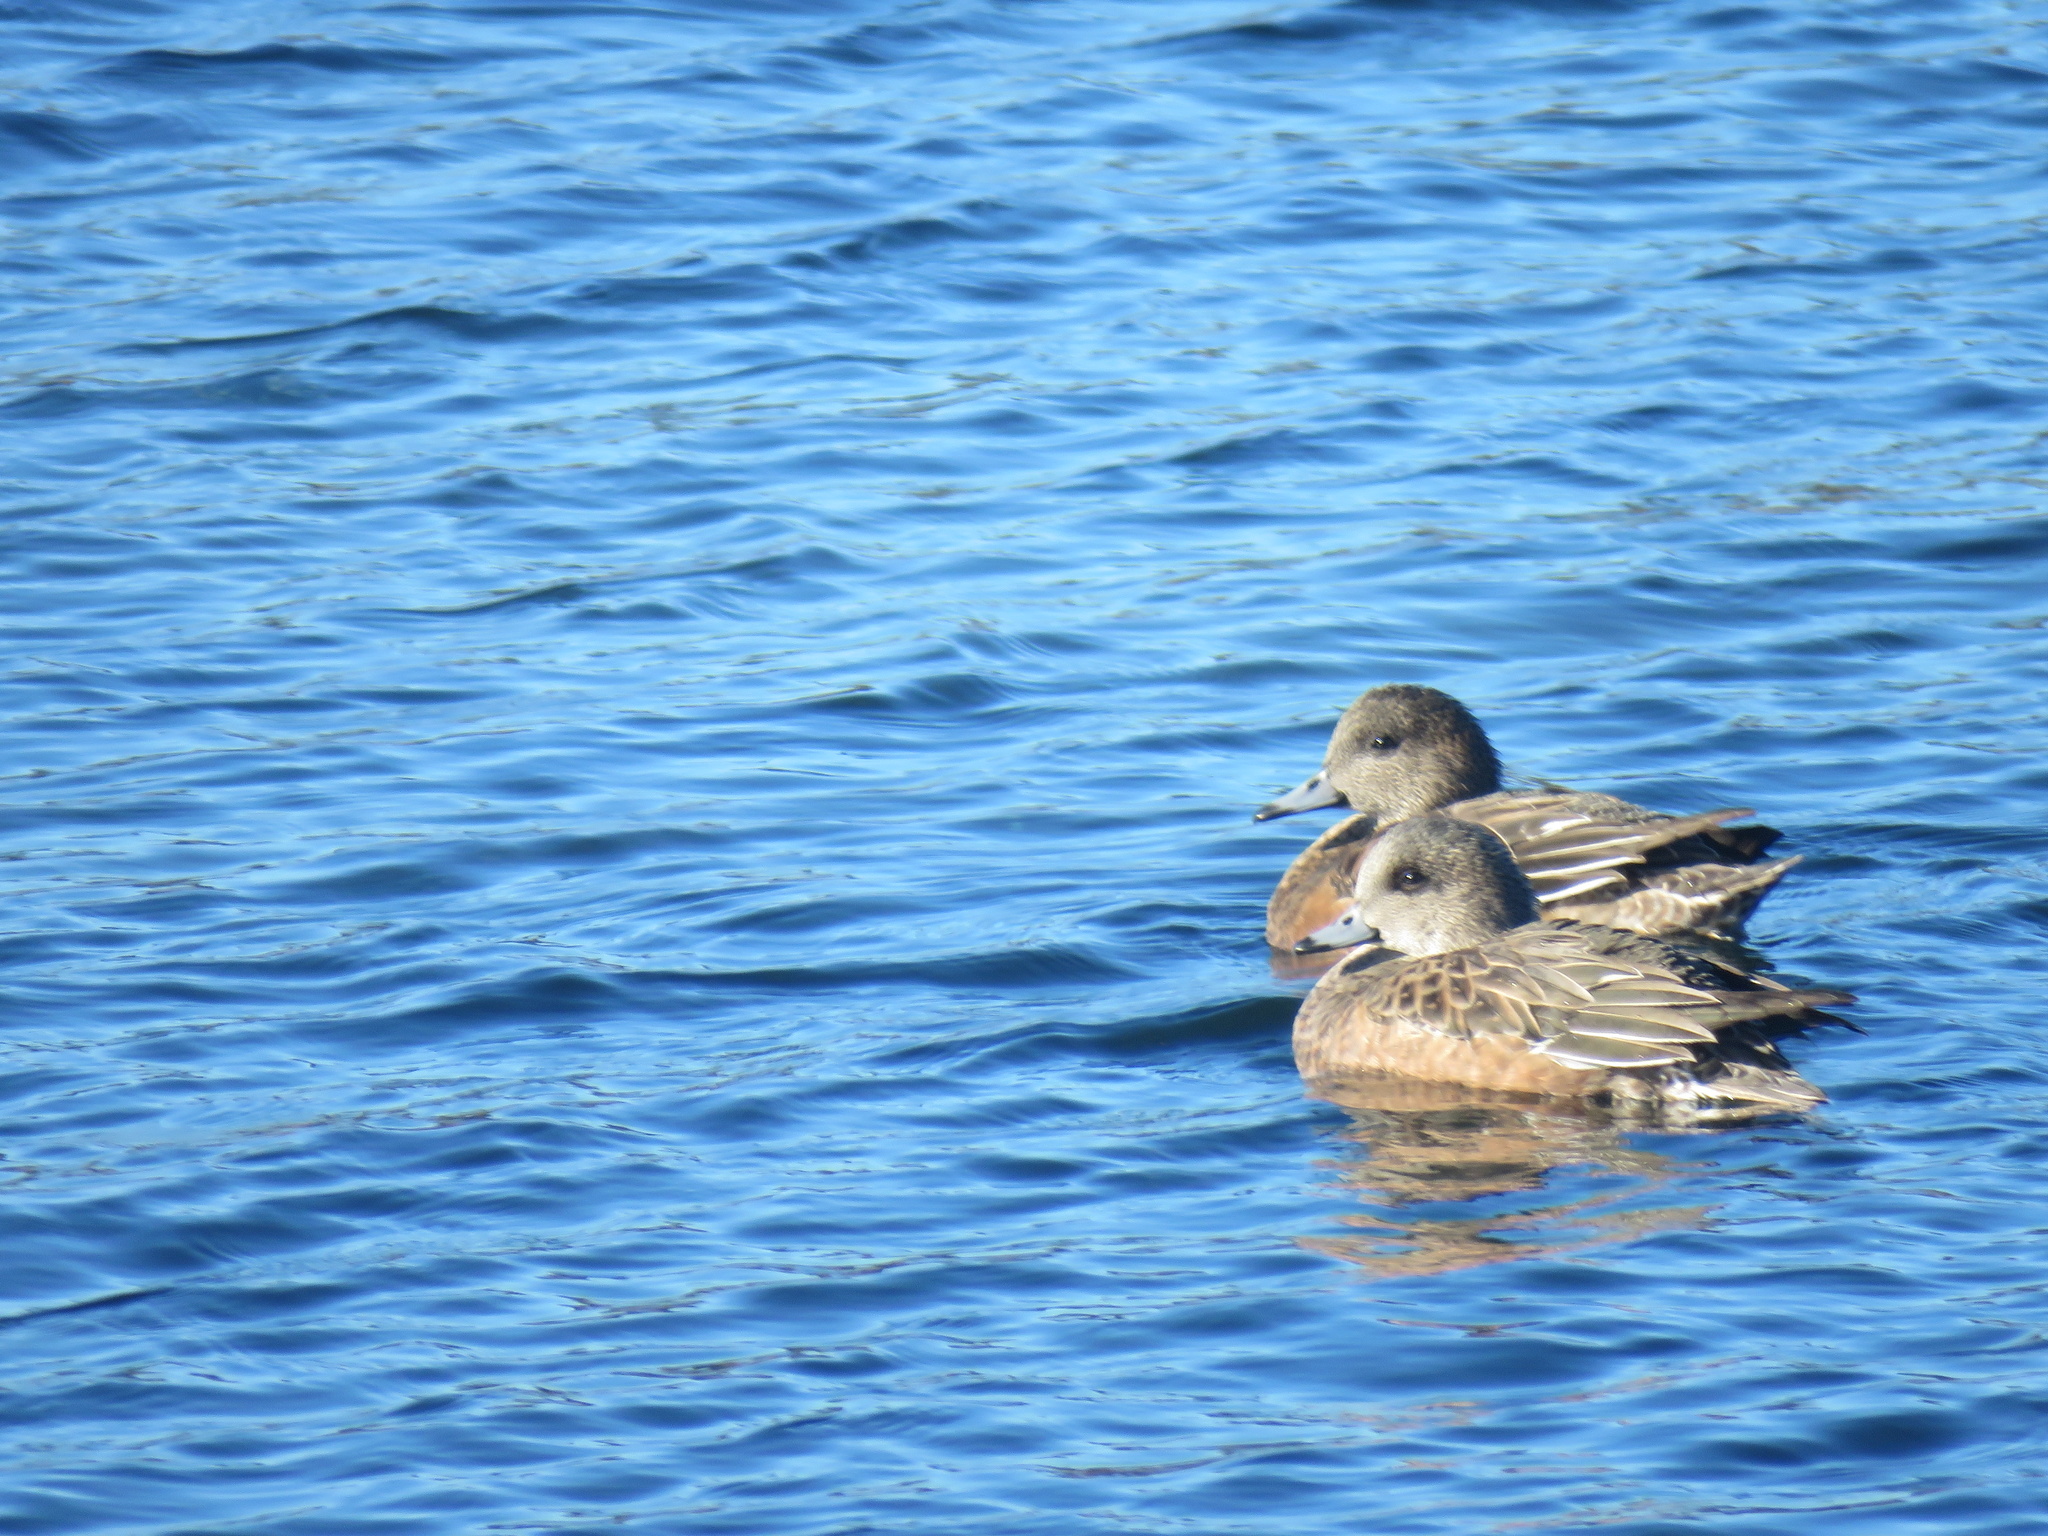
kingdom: Animalia
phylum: Chordata
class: Aves
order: Anseriformes
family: Anatidae
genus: Mareca
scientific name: Mareca americana
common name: American wigeon
